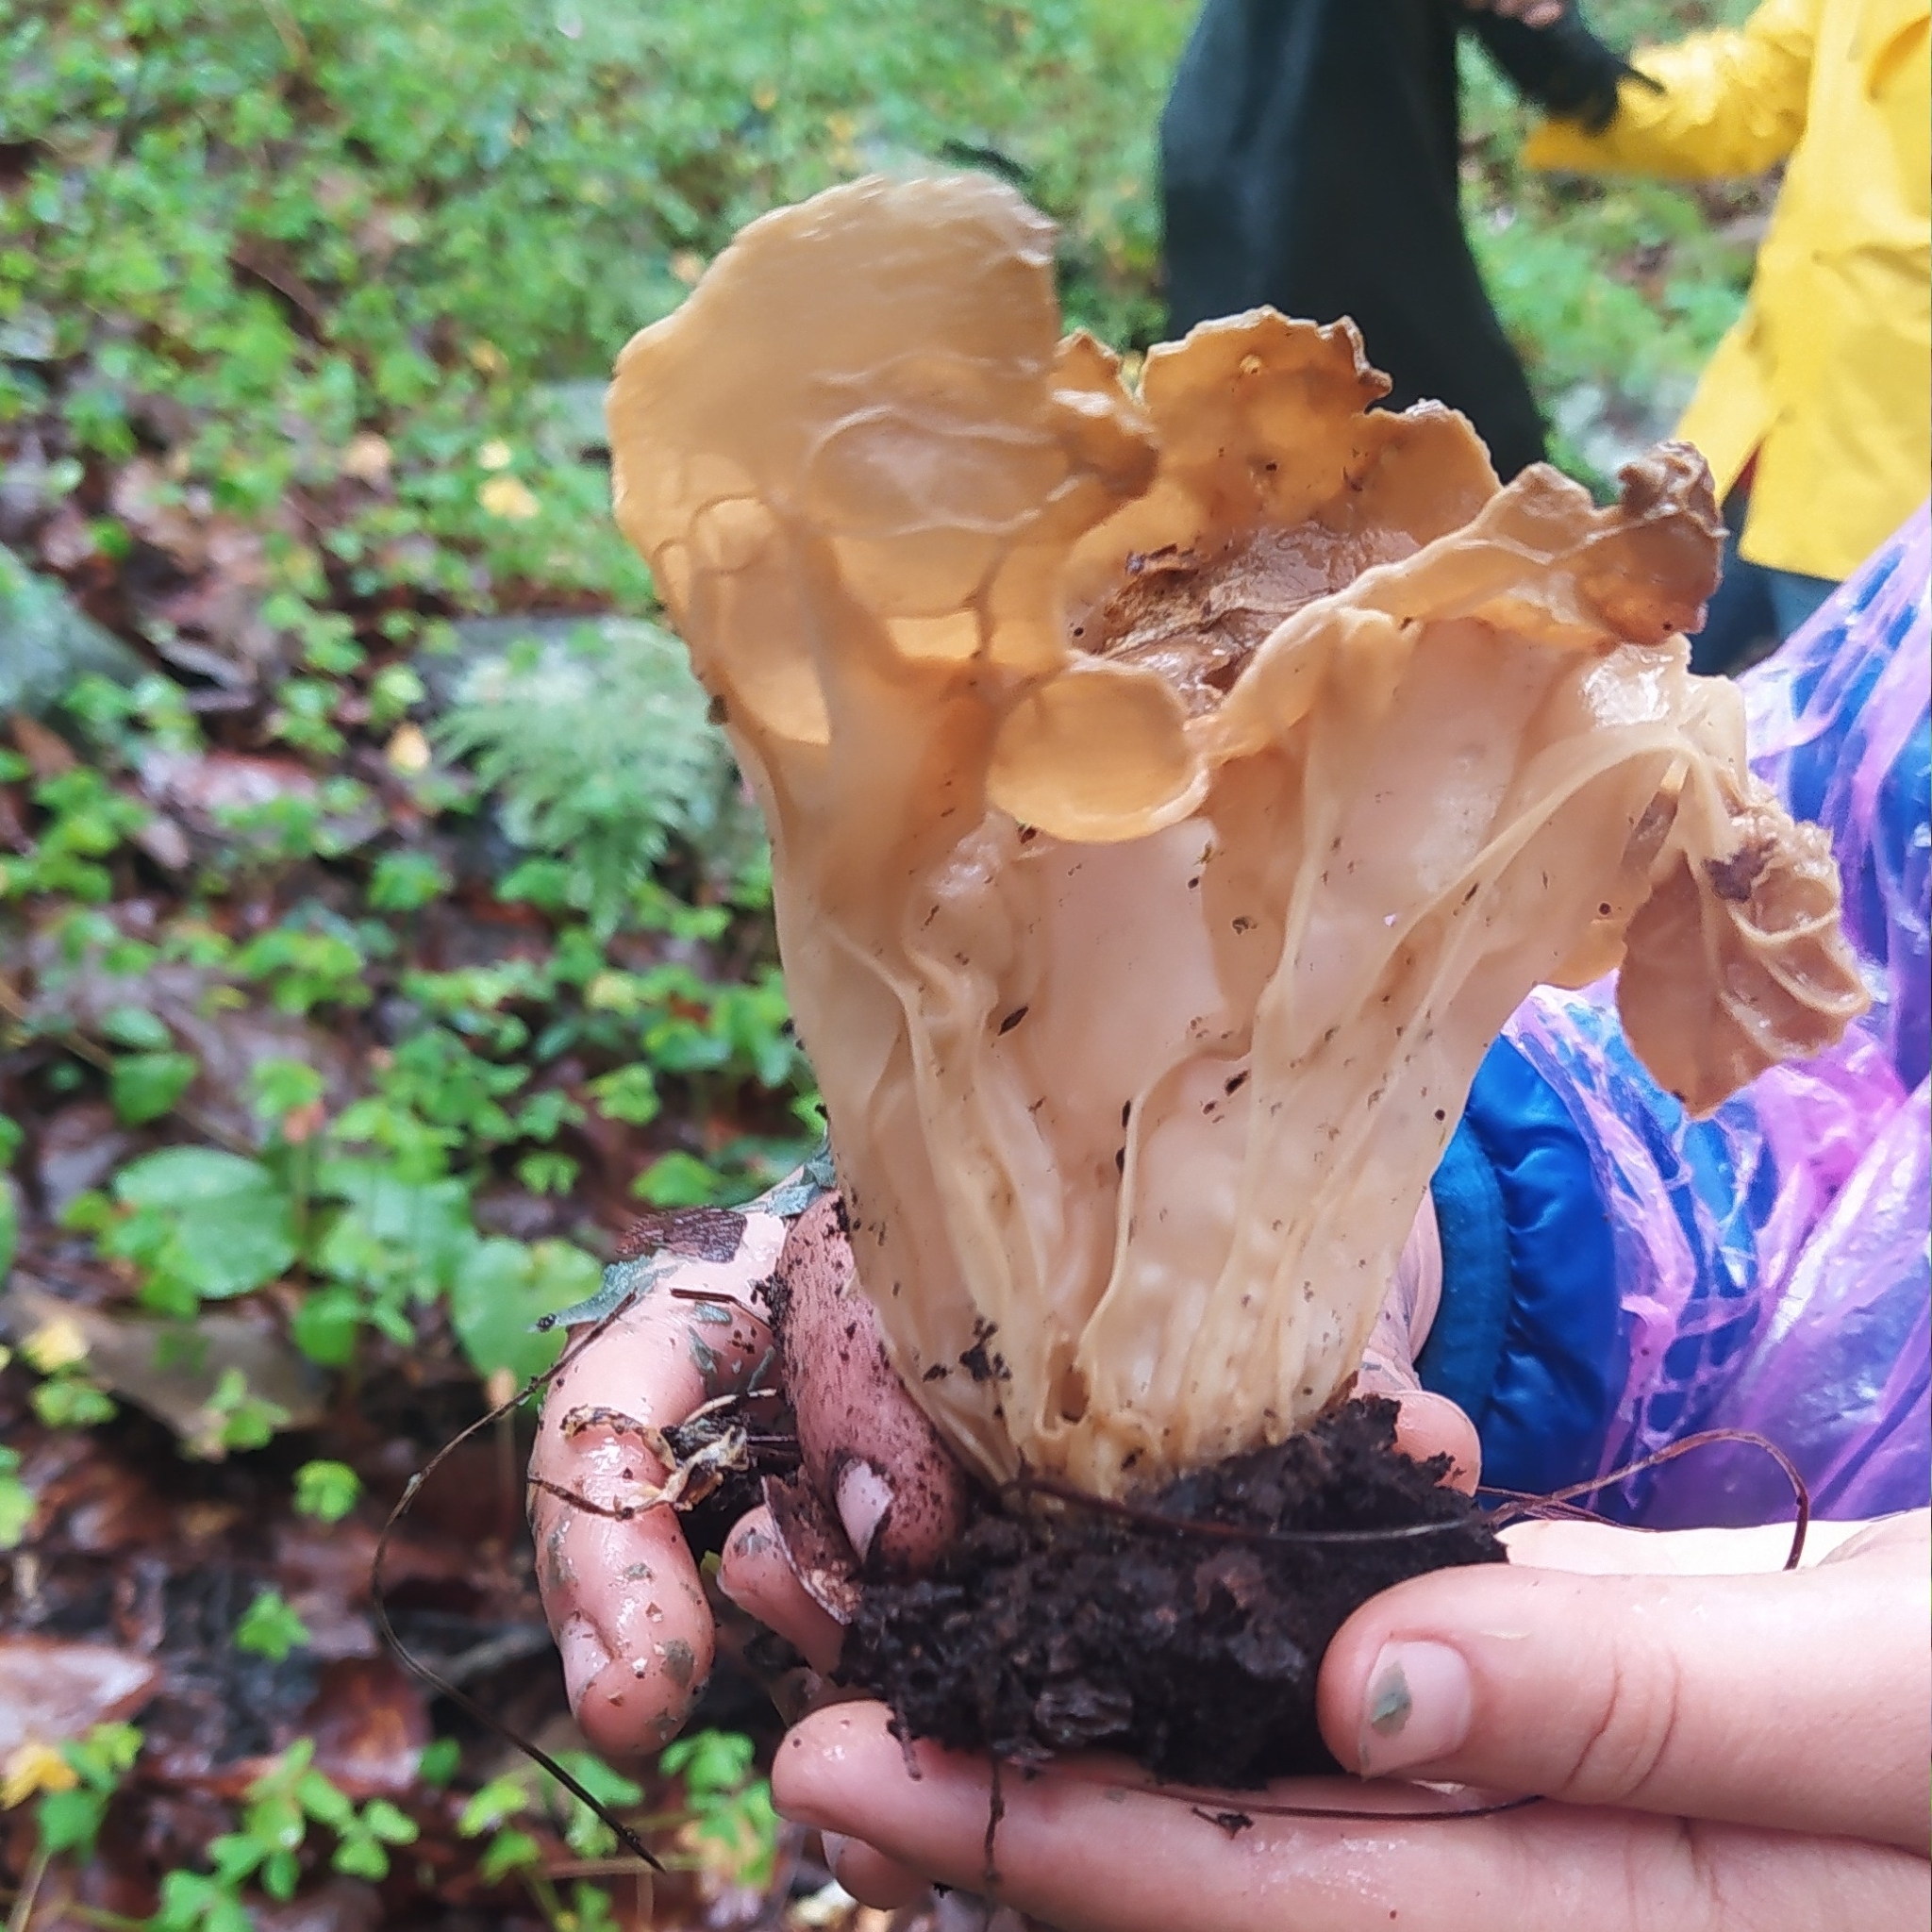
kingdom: Fungi
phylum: Ascomycota
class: Pezizomycetes
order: Pezizales
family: Helvellaceae
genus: Helvella
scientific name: Helvella acetabulum
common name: Vinegar cup
